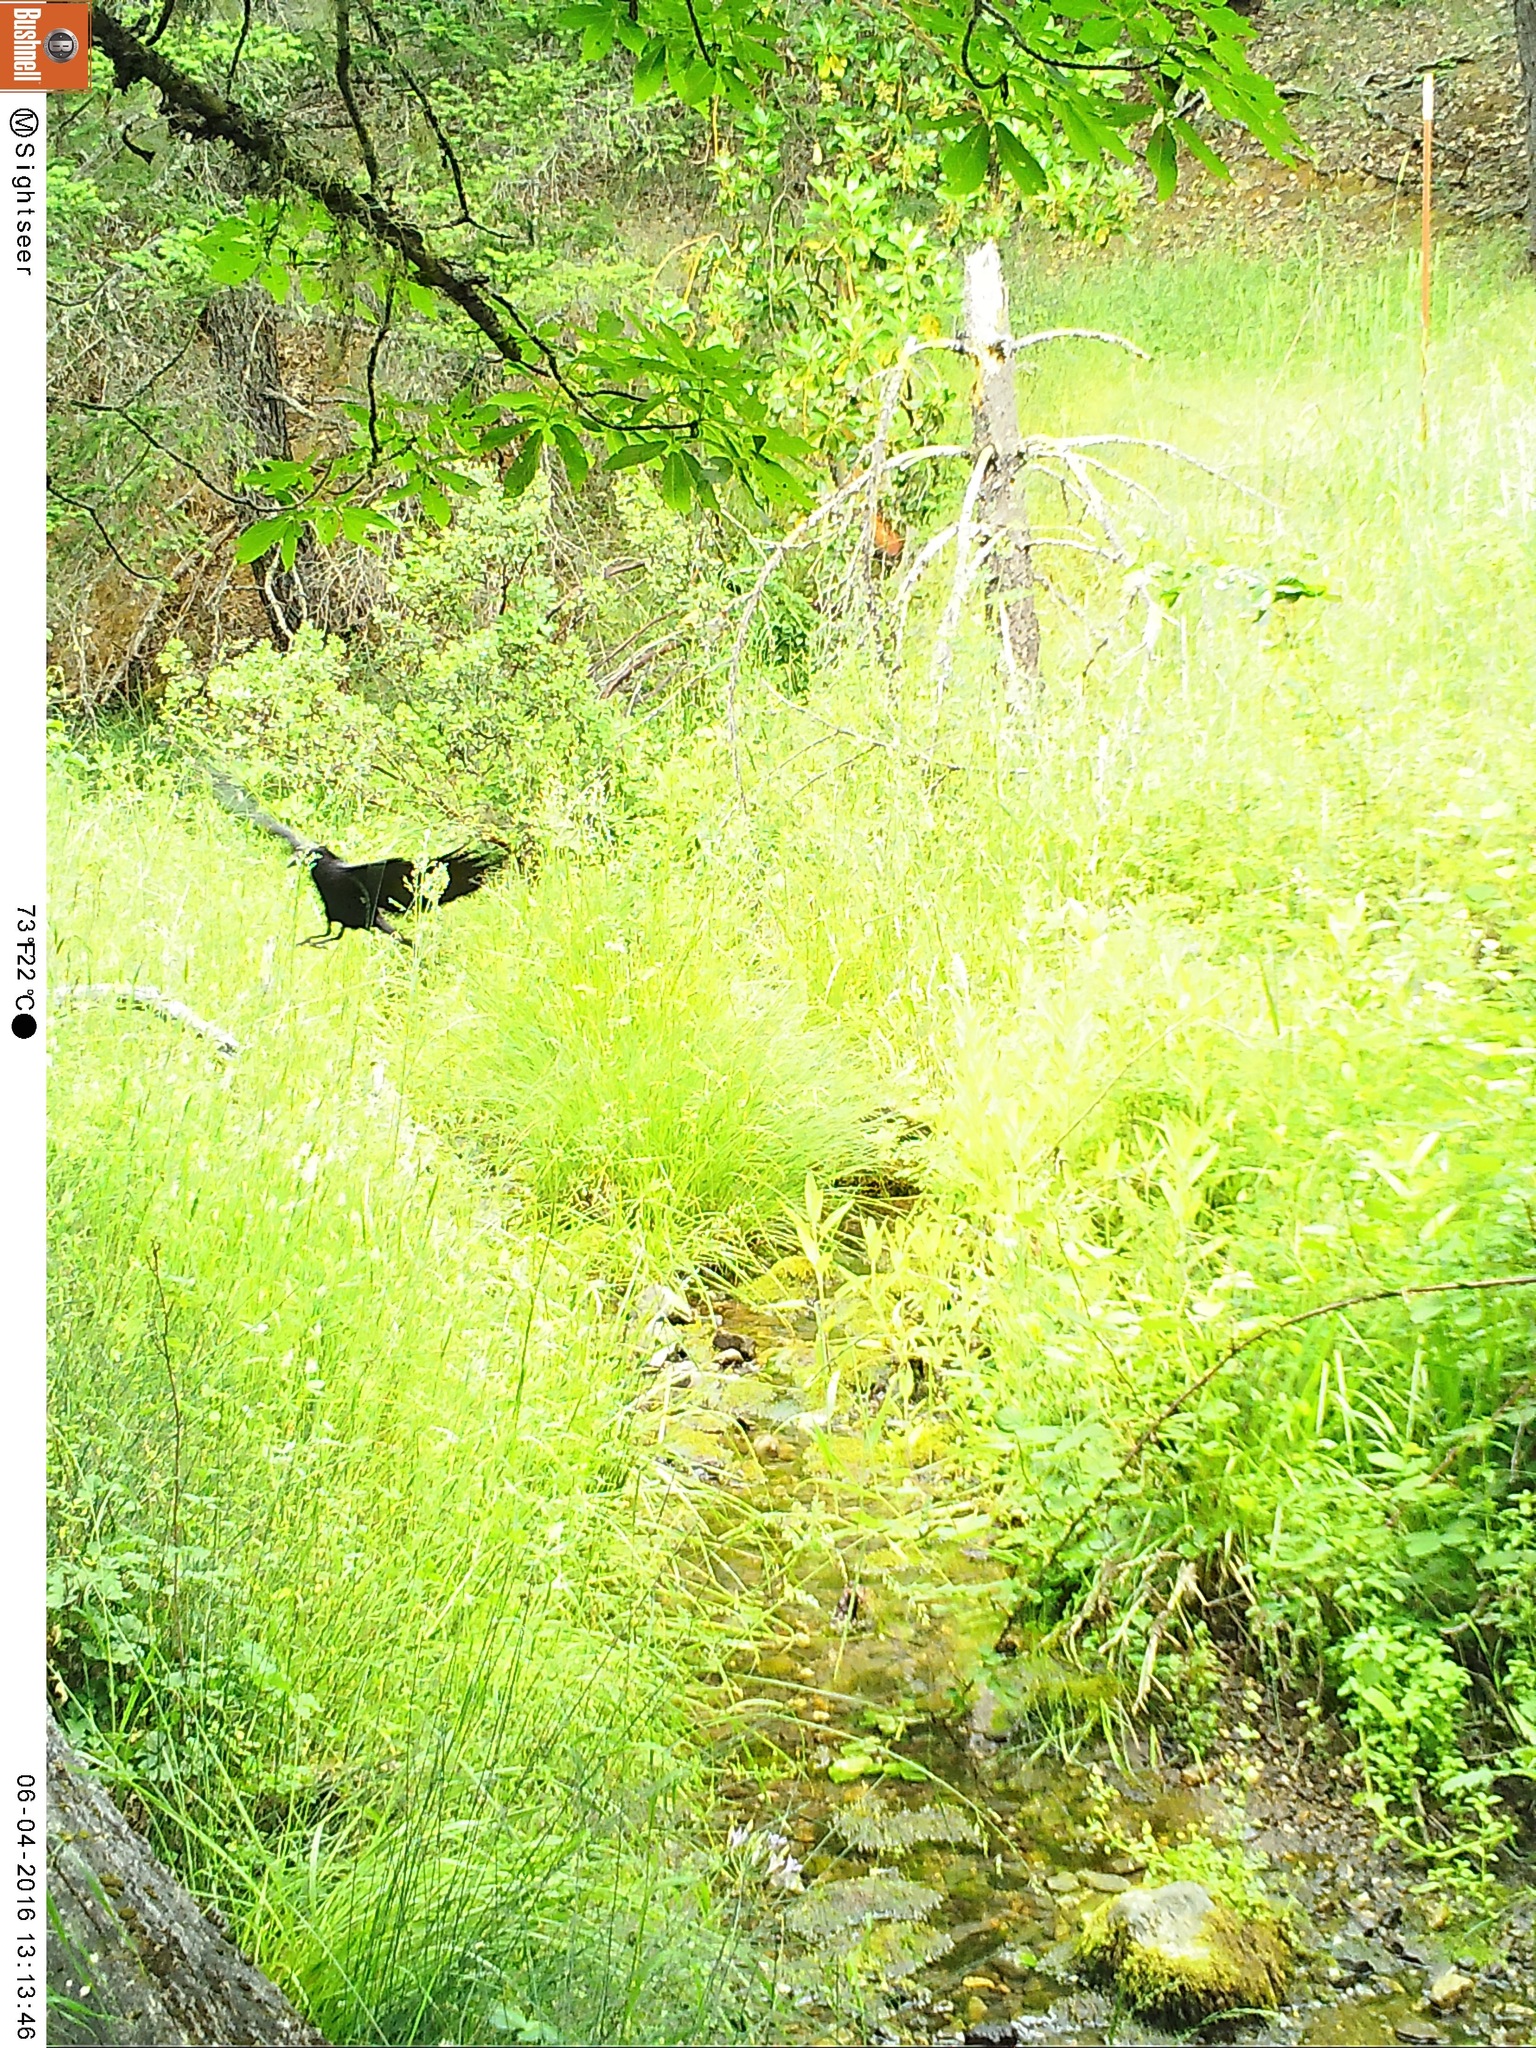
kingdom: Animalia
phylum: Chordata
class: Aves
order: Passeriformes
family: Corvidae
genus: Corvus
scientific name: Corvus
